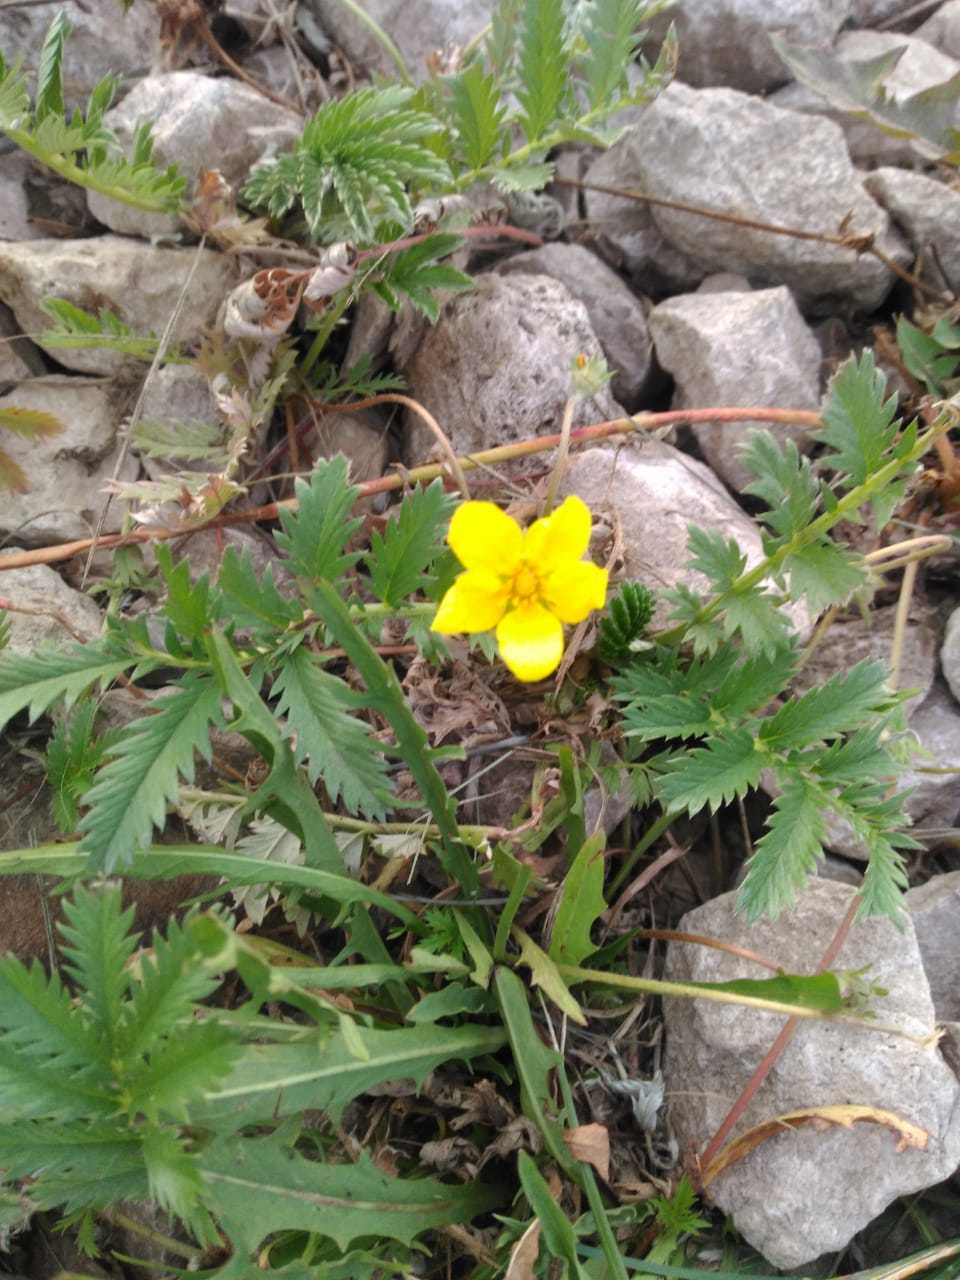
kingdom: Plantae
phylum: Tracheophyta
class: Magnoliopsida
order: Rosales
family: Rosaceae
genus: Argentina
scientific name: Argentina anserina
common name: Common silverweed
